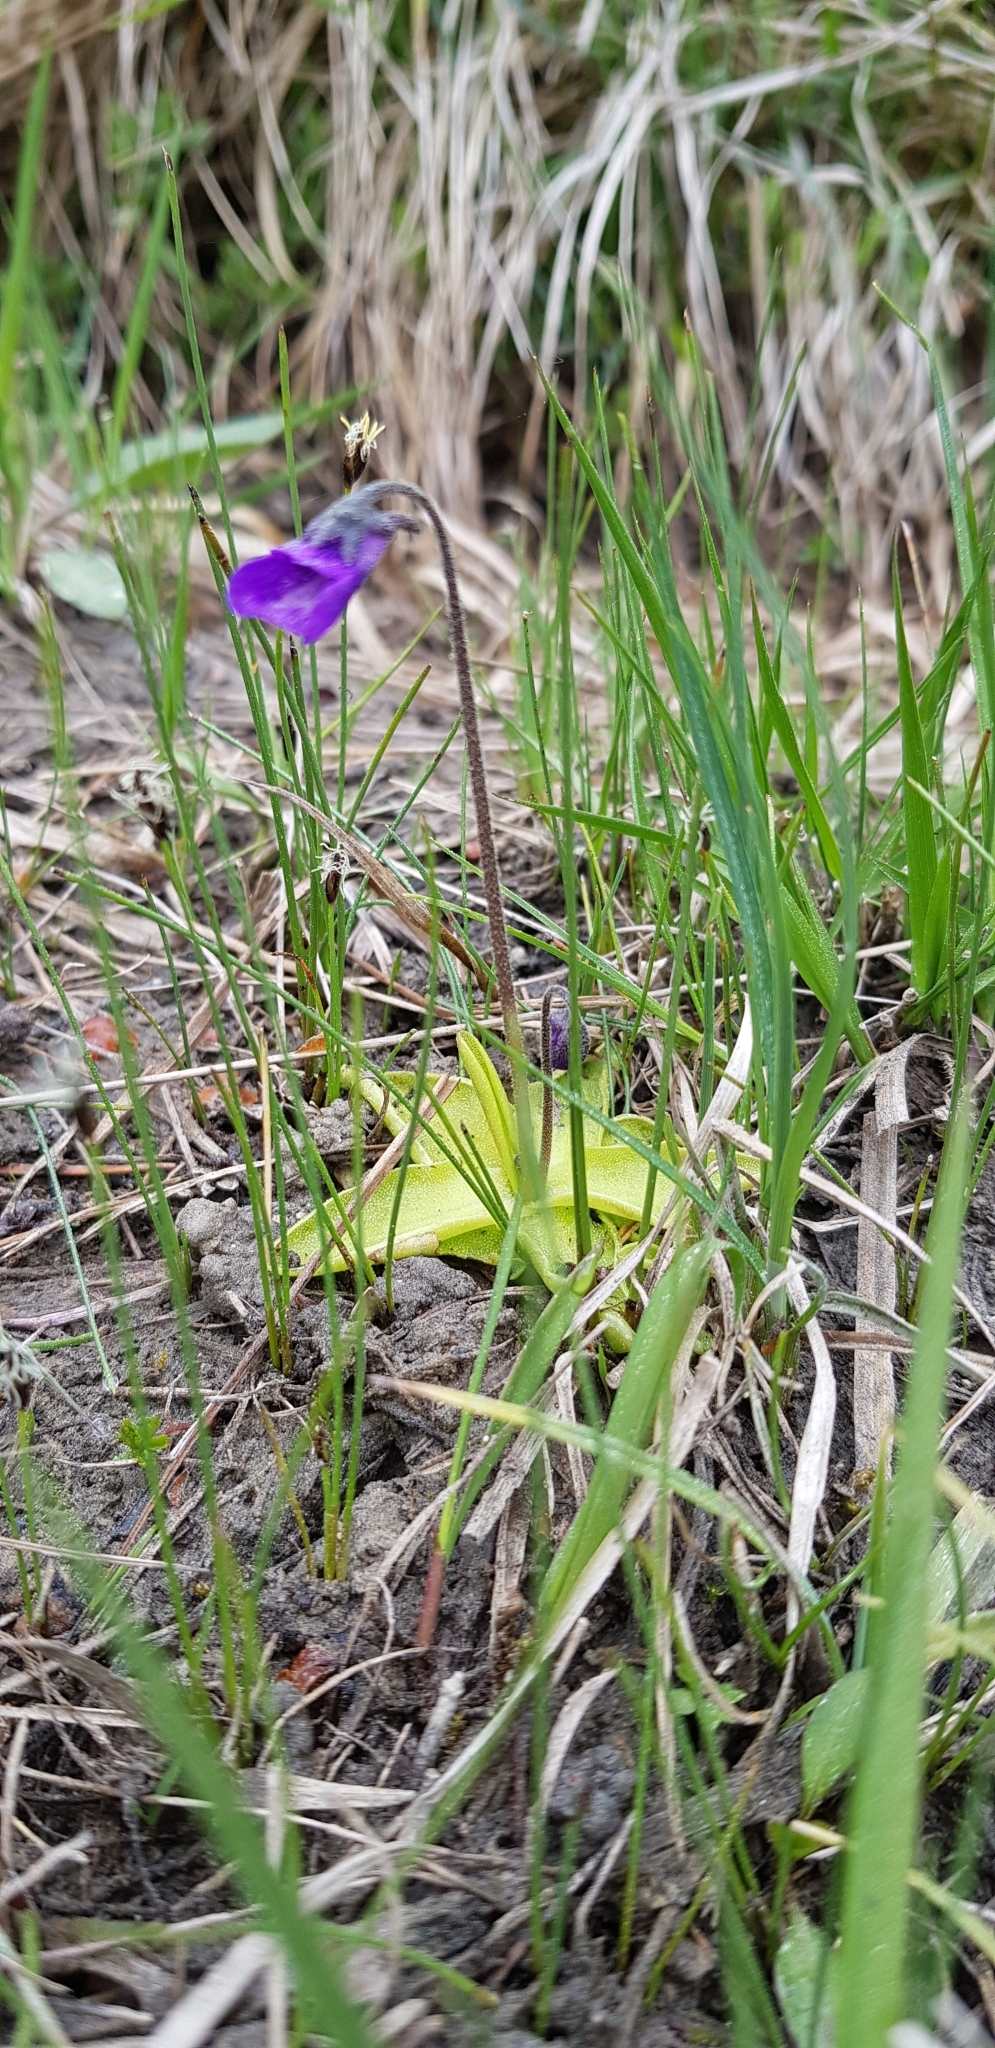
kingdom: Plantae
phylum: Tracheophyta
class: Magnoliopsida
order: Lamiales
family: Lentibulariaceae
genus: Pinguicula
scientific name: Pinguicula vulgaris
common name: Common butterwort
